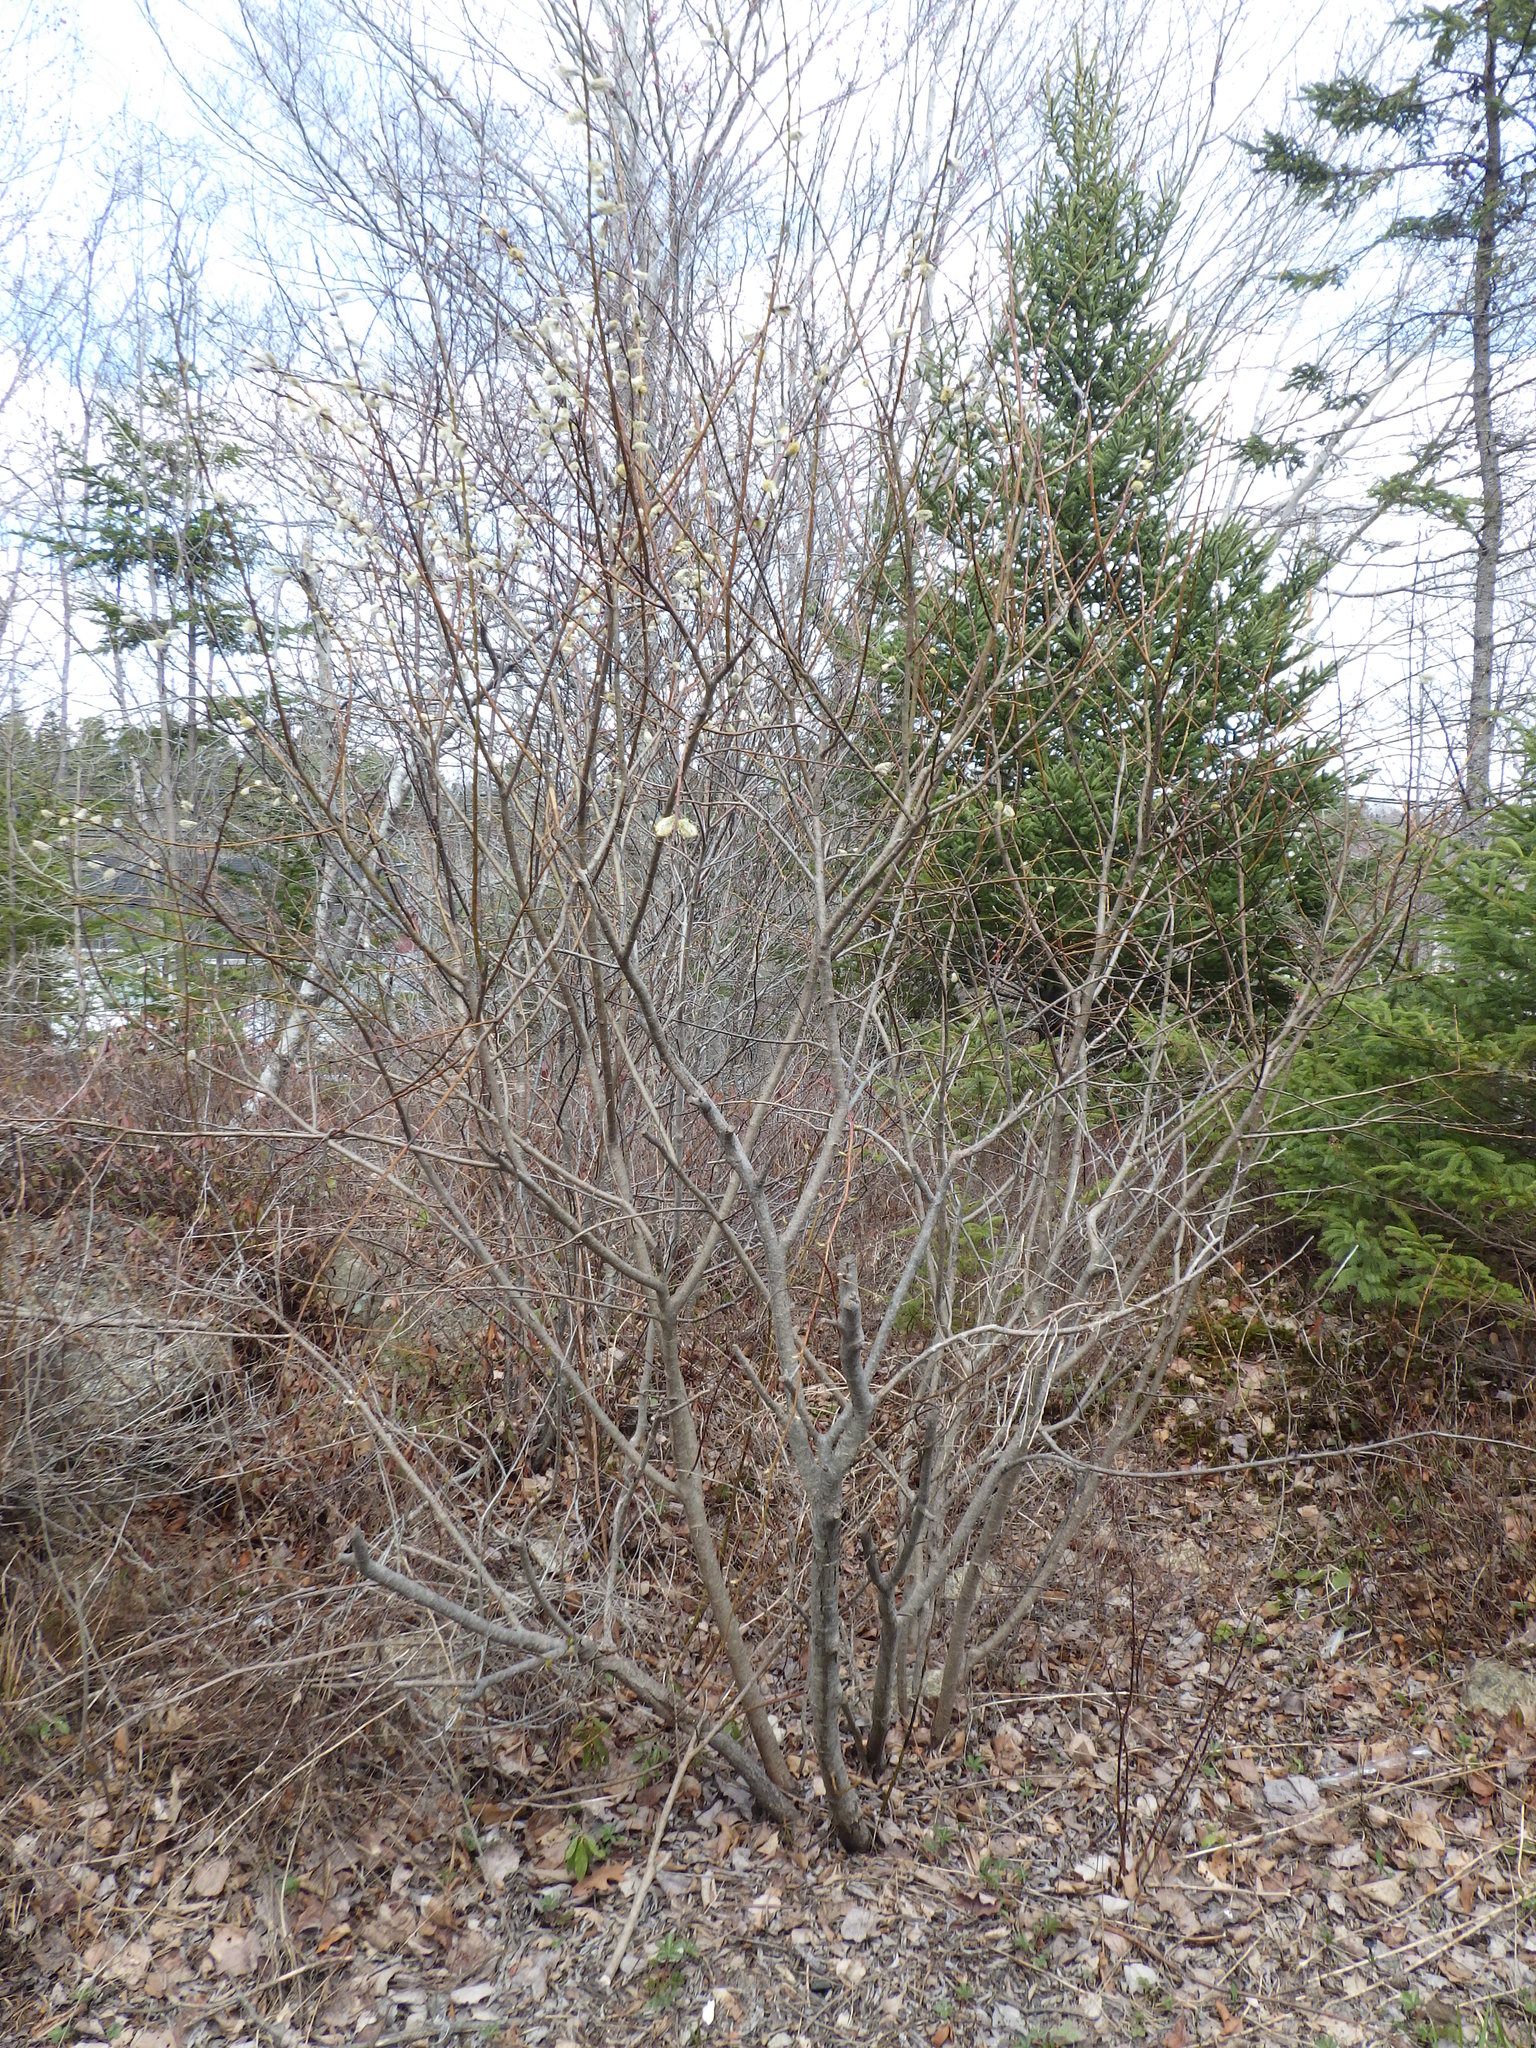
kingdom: Plantae
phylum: Tracheophyta
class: Magnoliopsida
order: Malpighiales
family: Salicaceae
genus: Salix
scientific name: Salix discolor
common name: Glaucous willow
